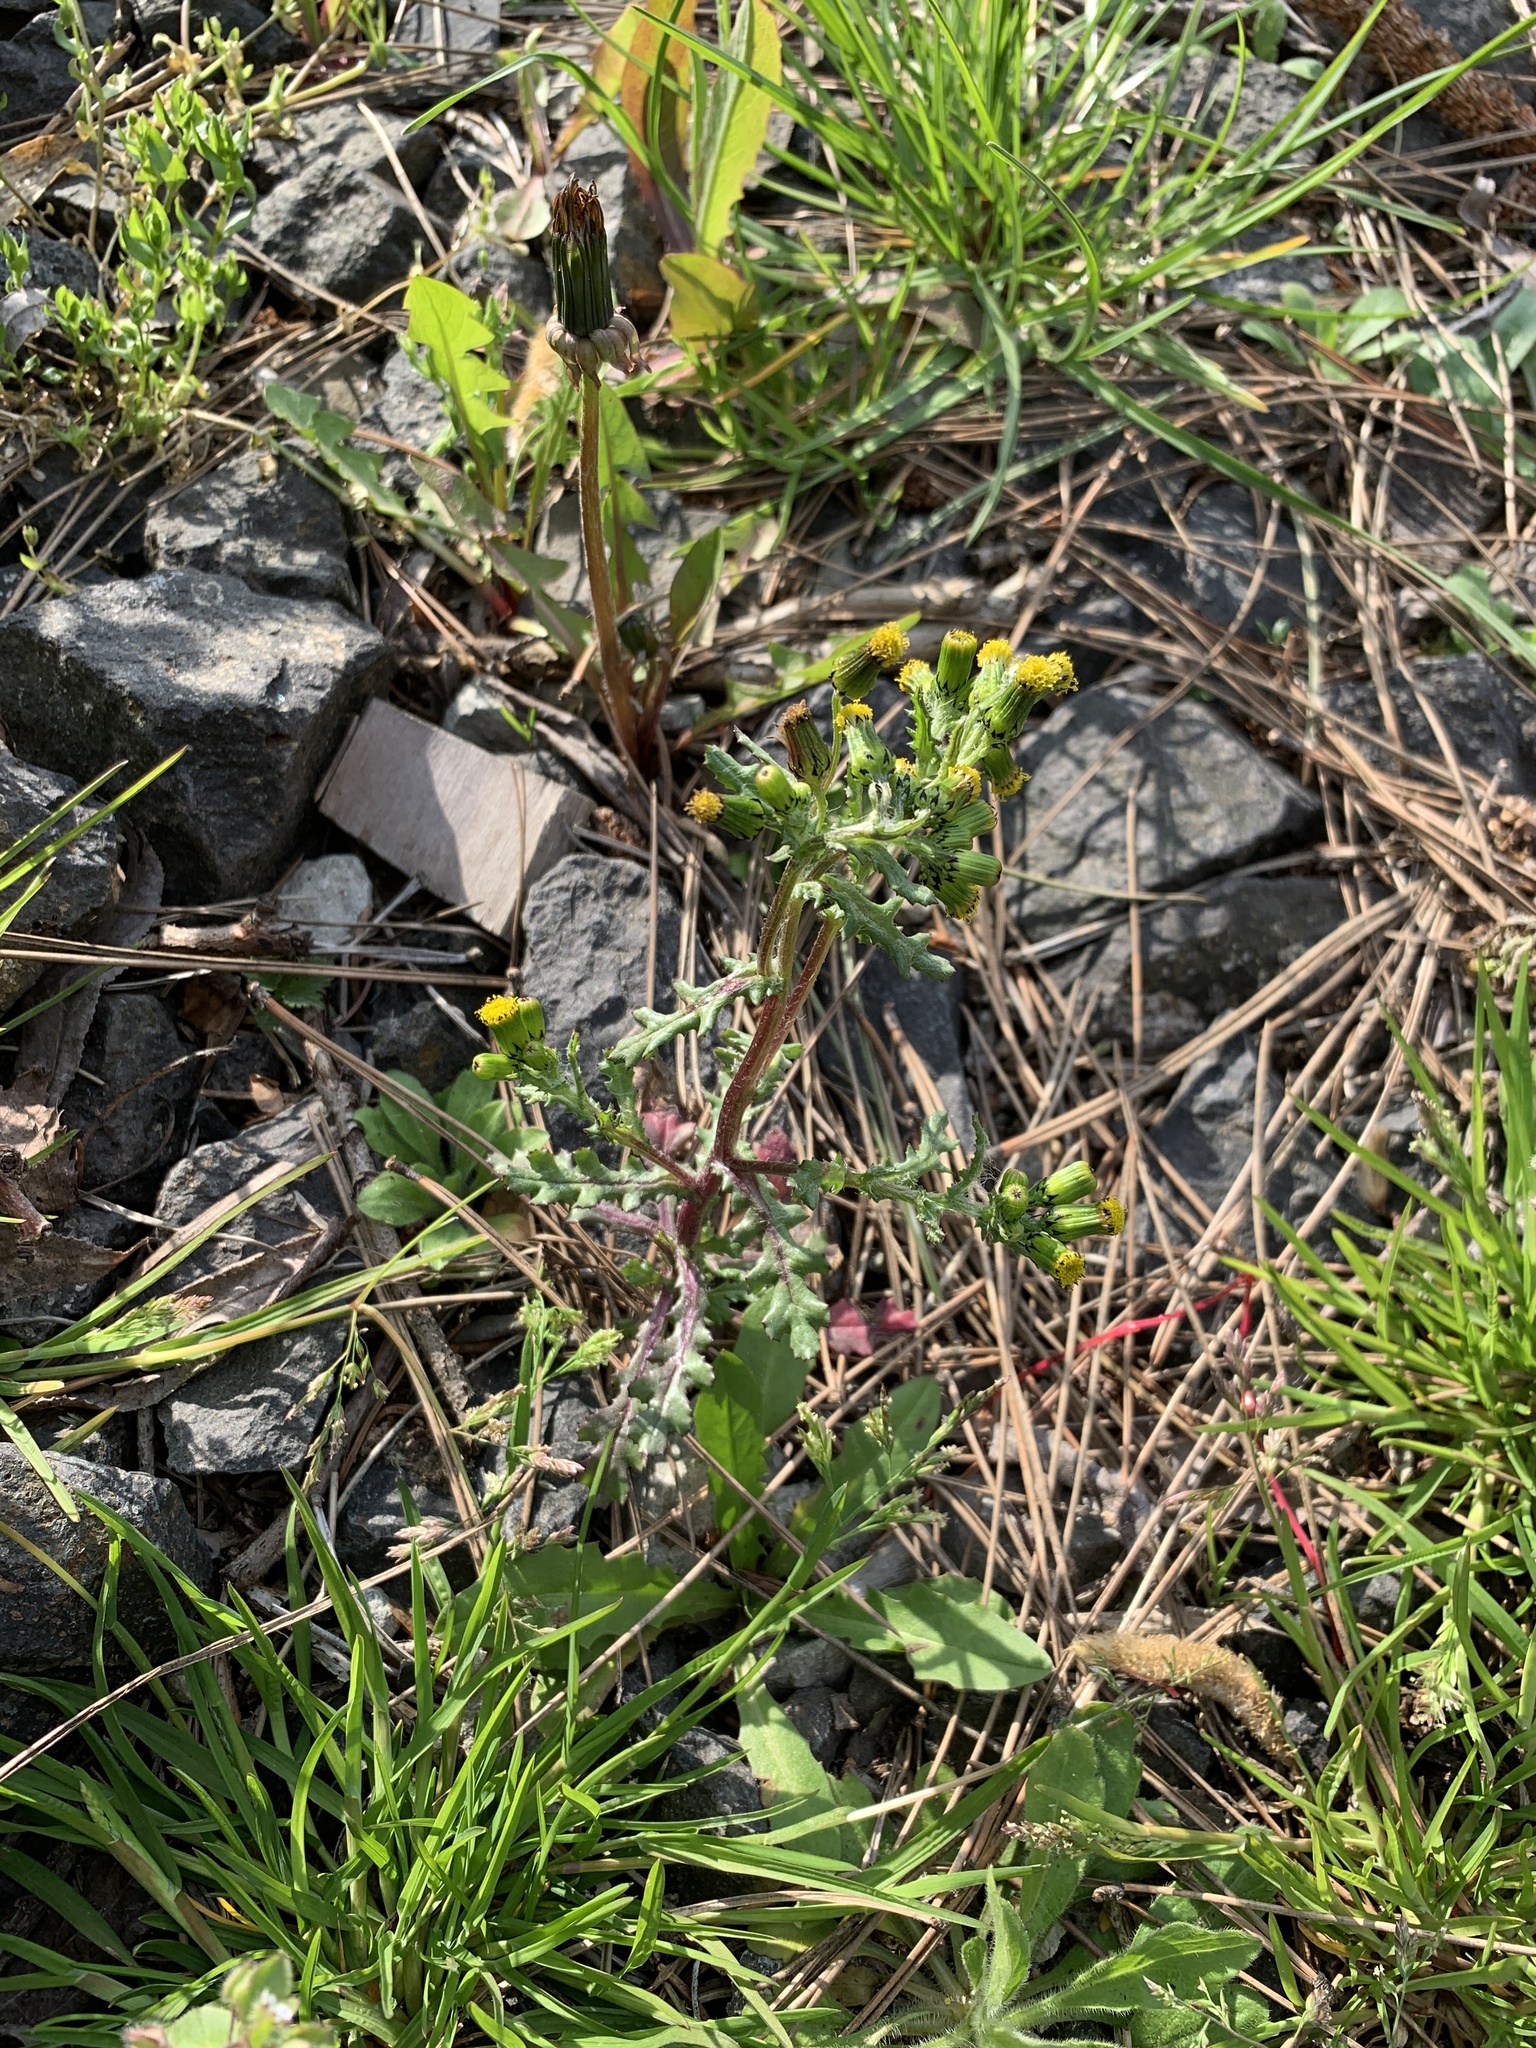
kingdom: Plantae
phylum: Tracheophyta
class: Magnoliopsida
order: Asterales
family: Asteraceae
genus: Senecio
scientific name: Senecio vulgaris
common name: Old-man-in-the-spring
